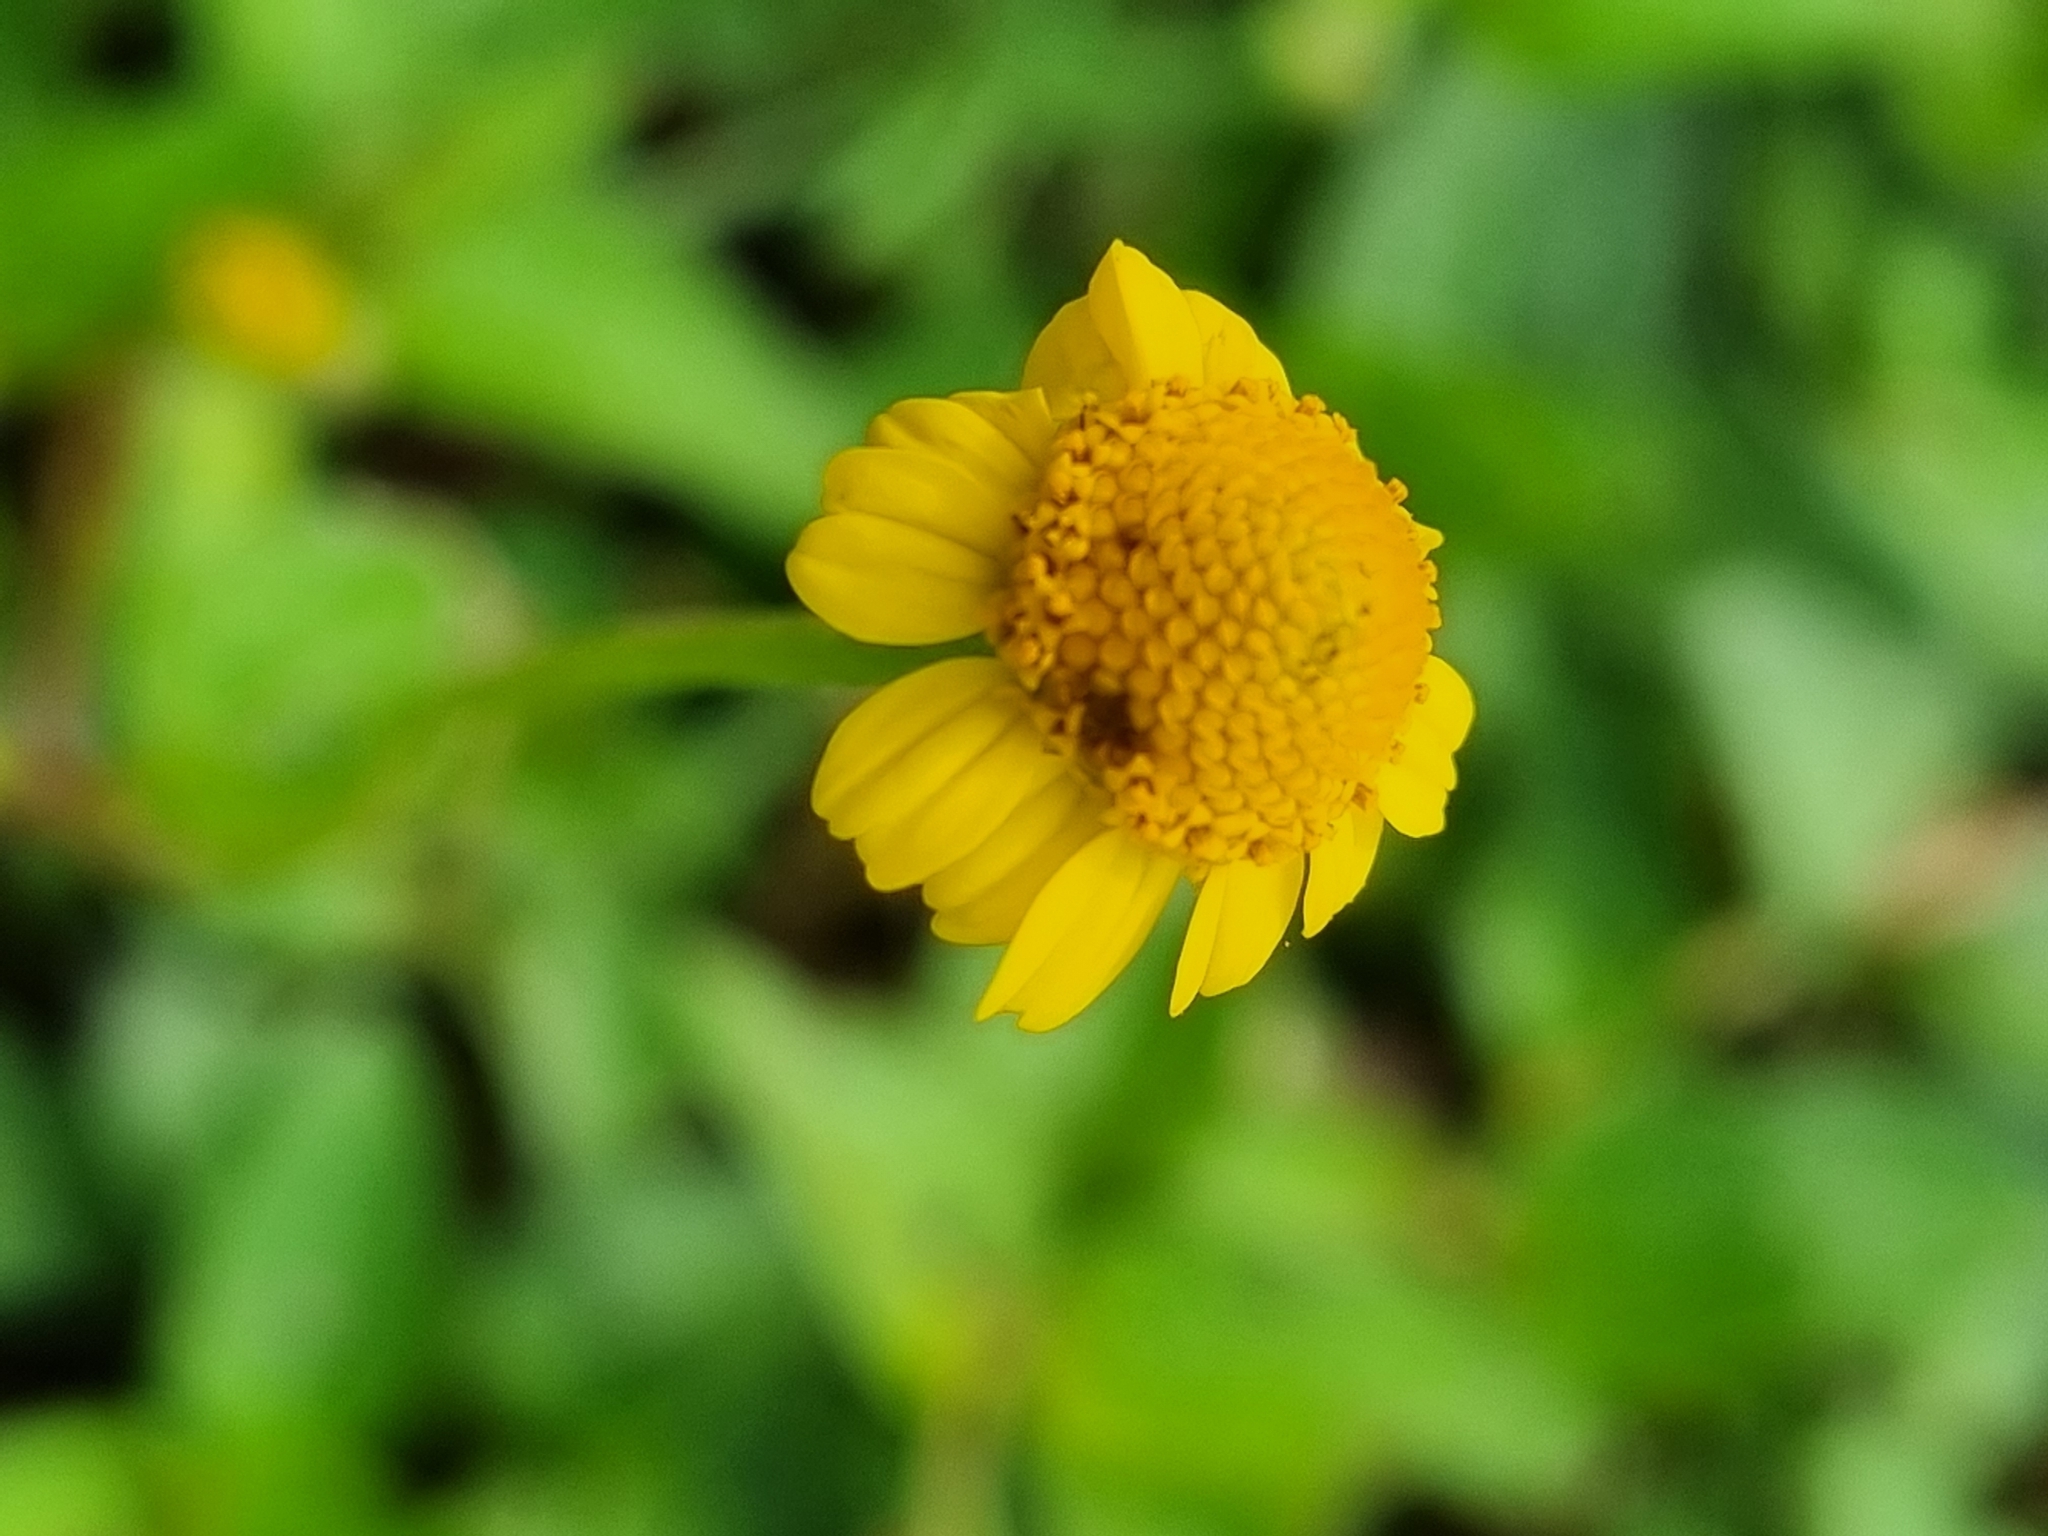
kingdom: Plantae
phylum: Tracheophyta
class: Magnoliopsida
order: Asterales
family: Asteraceae
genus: Acmella
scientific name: Acmella repens
